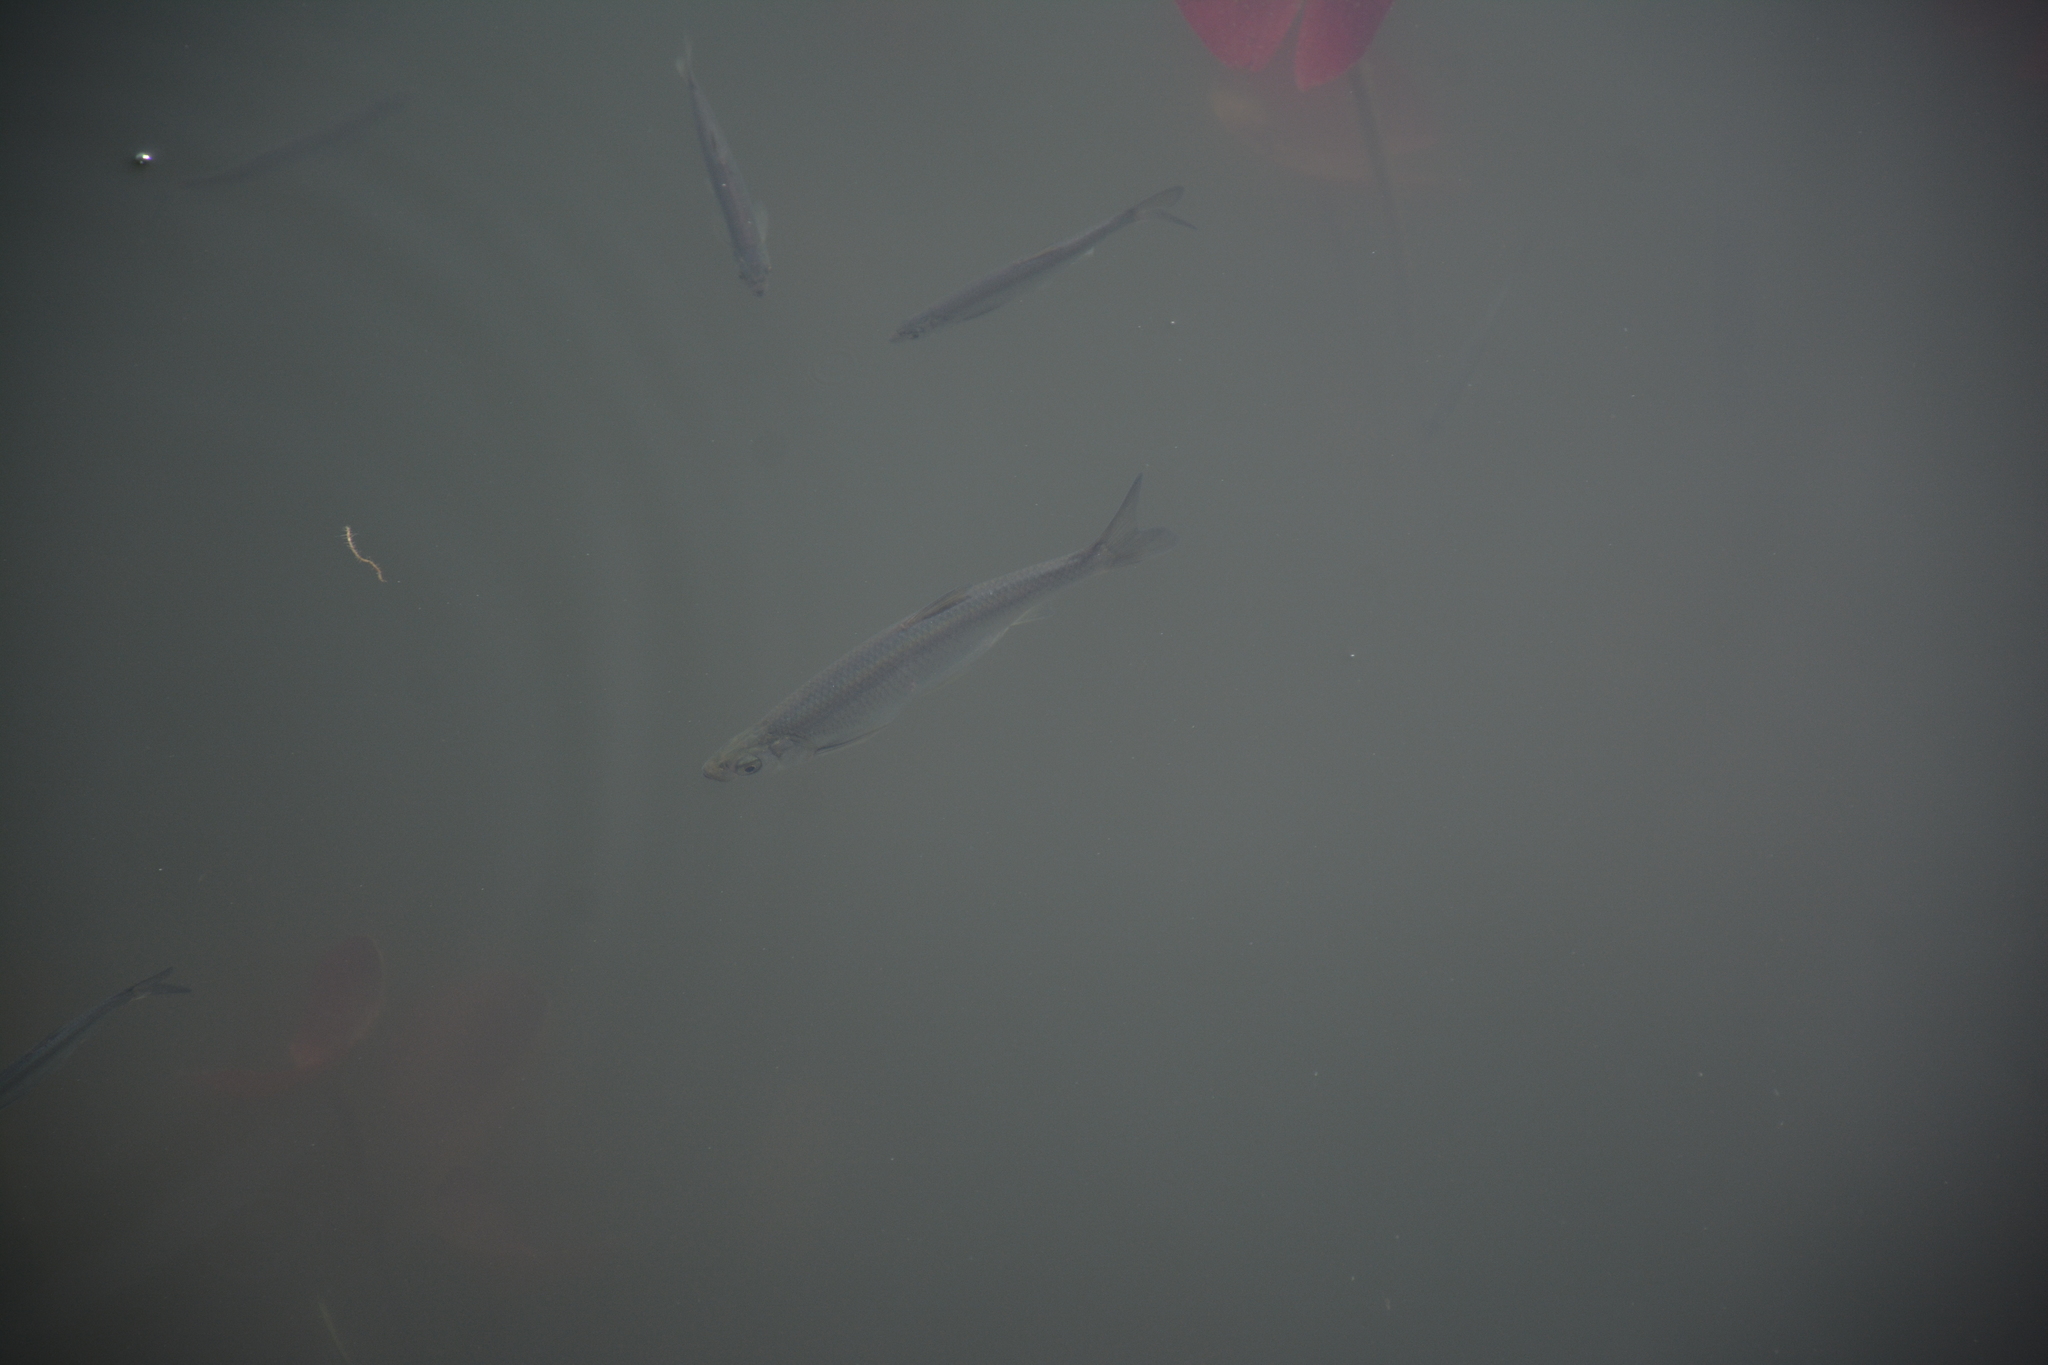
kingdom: Animalia
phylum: Chordata
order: Cypriniformes
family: Cyprinidae
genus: Hemiculter
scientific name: Hemiculter leucisculus
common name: Common sawbelly
